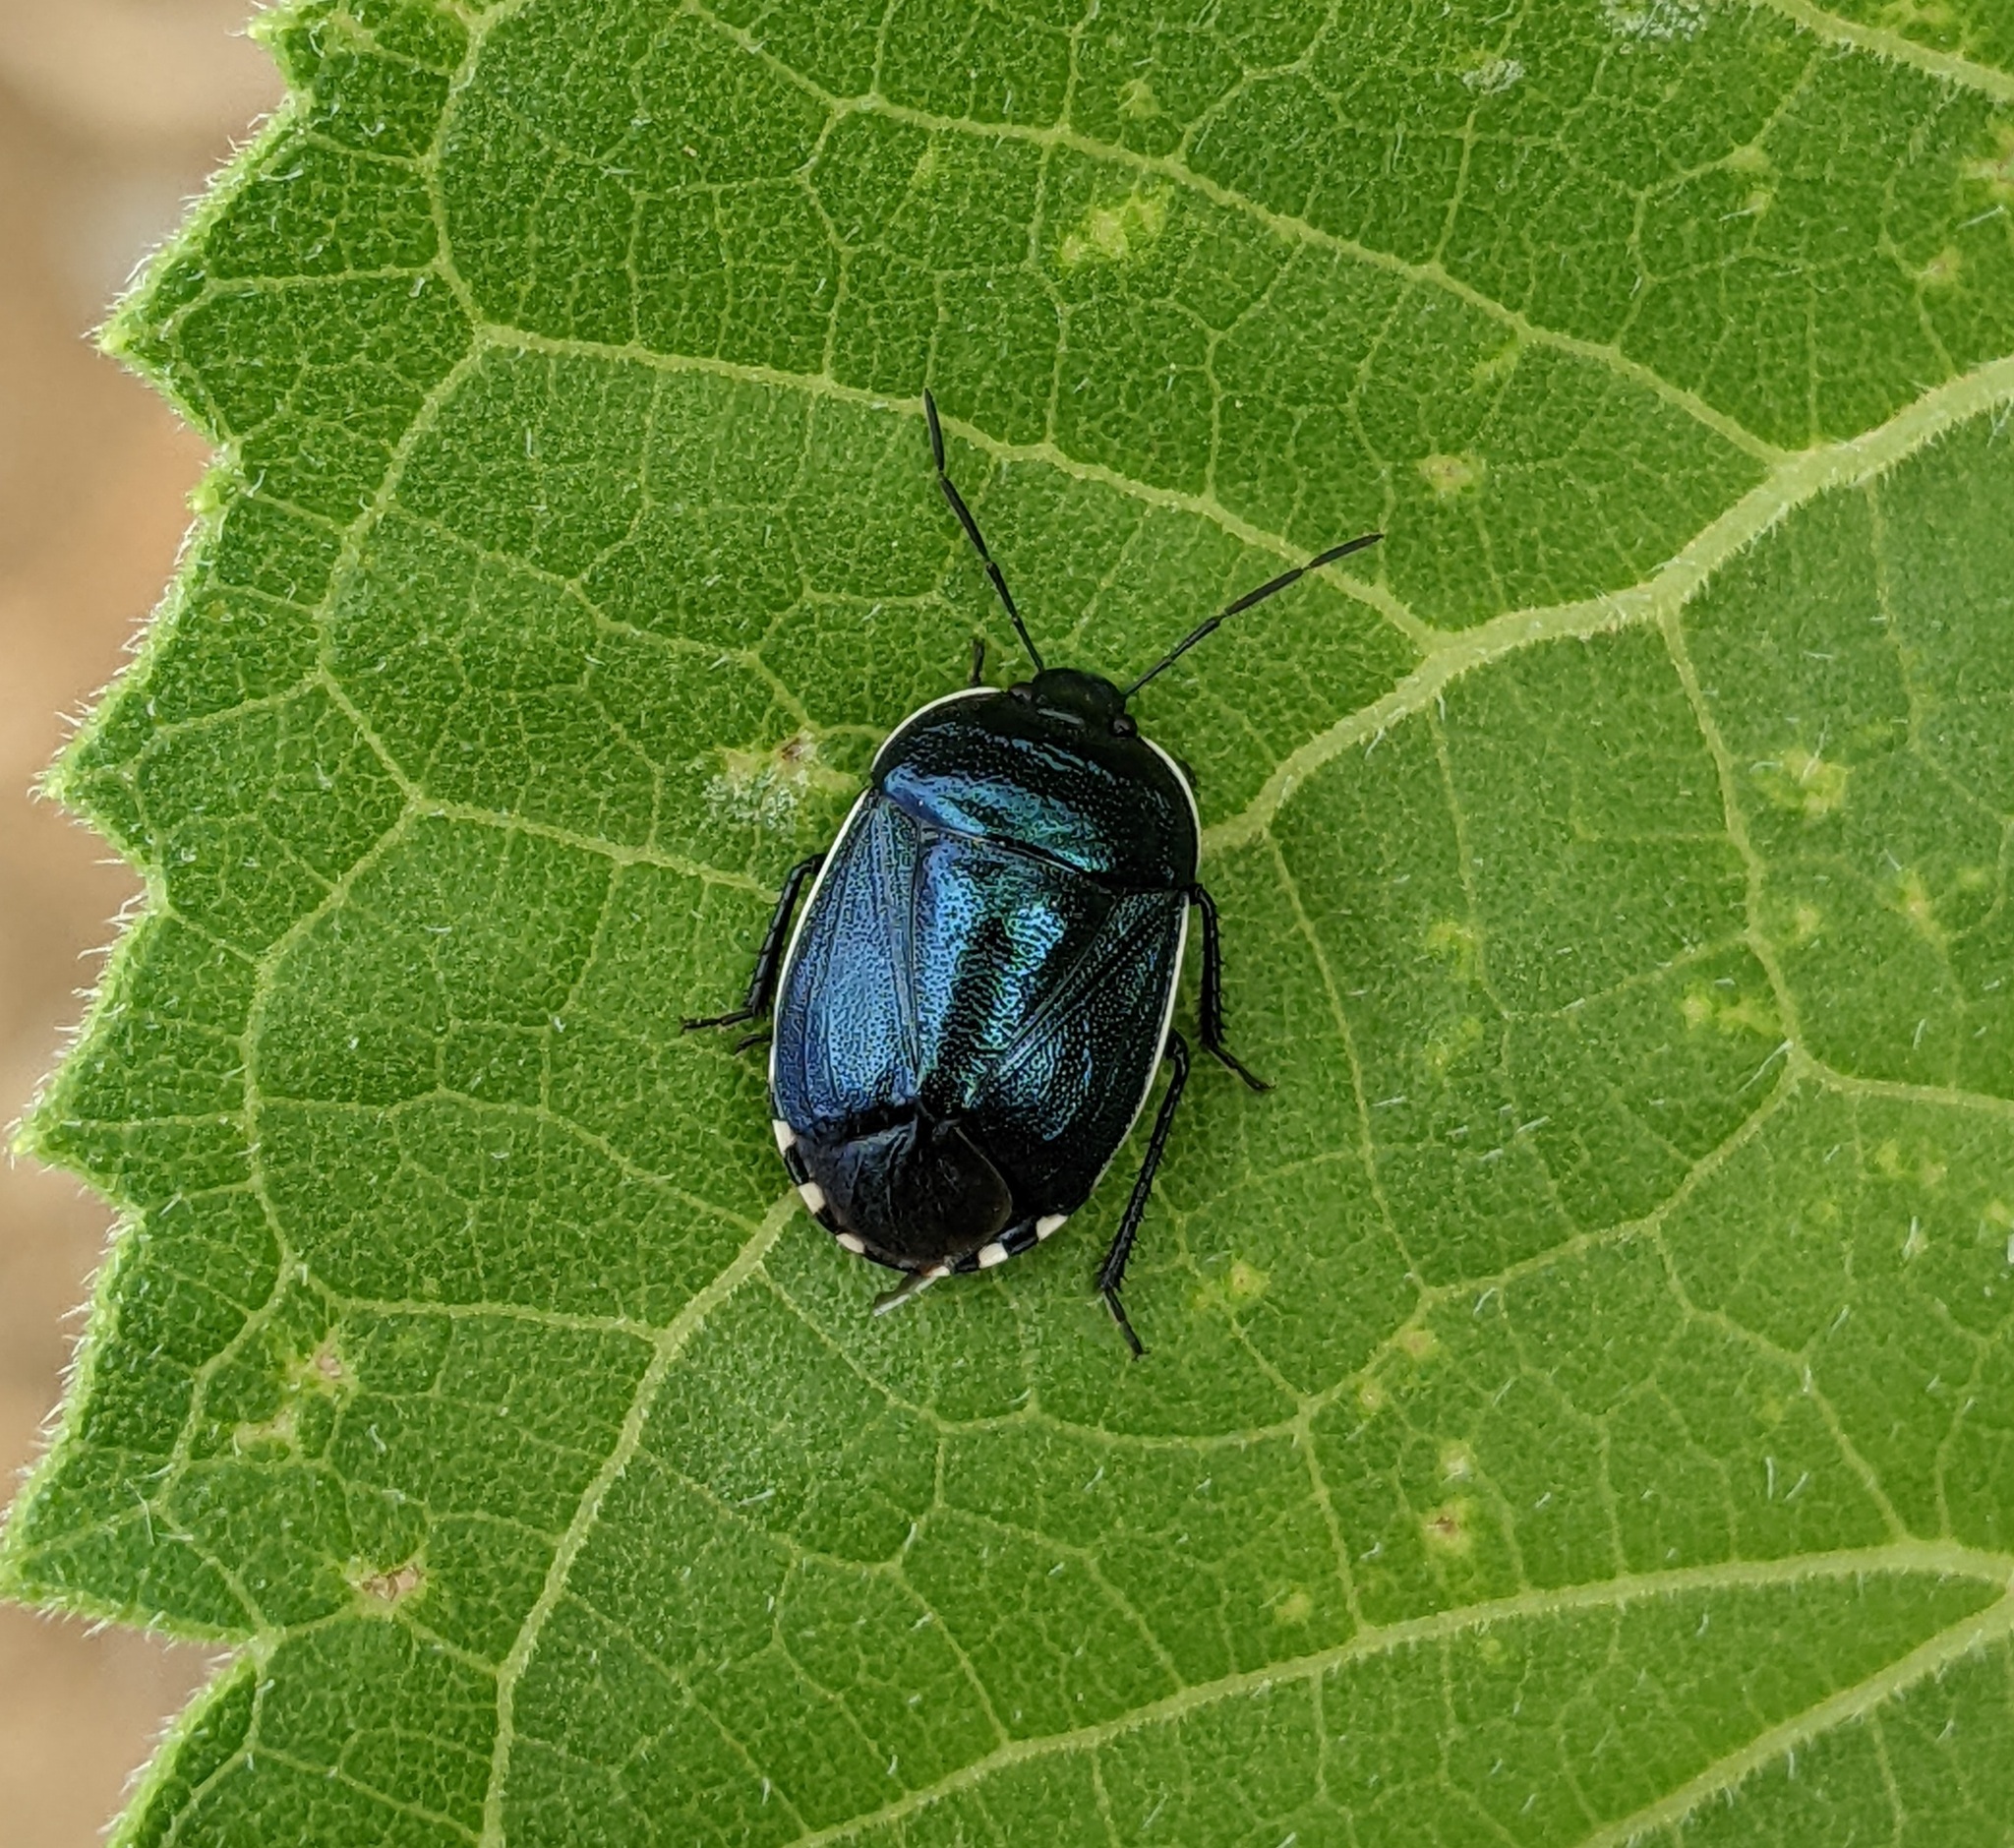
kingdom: Animalia
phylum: Arthropoda
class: Insecta
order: Hemiptera
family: Cydnidae
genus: Canthophorus
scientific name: Canthophorus melanopterus
